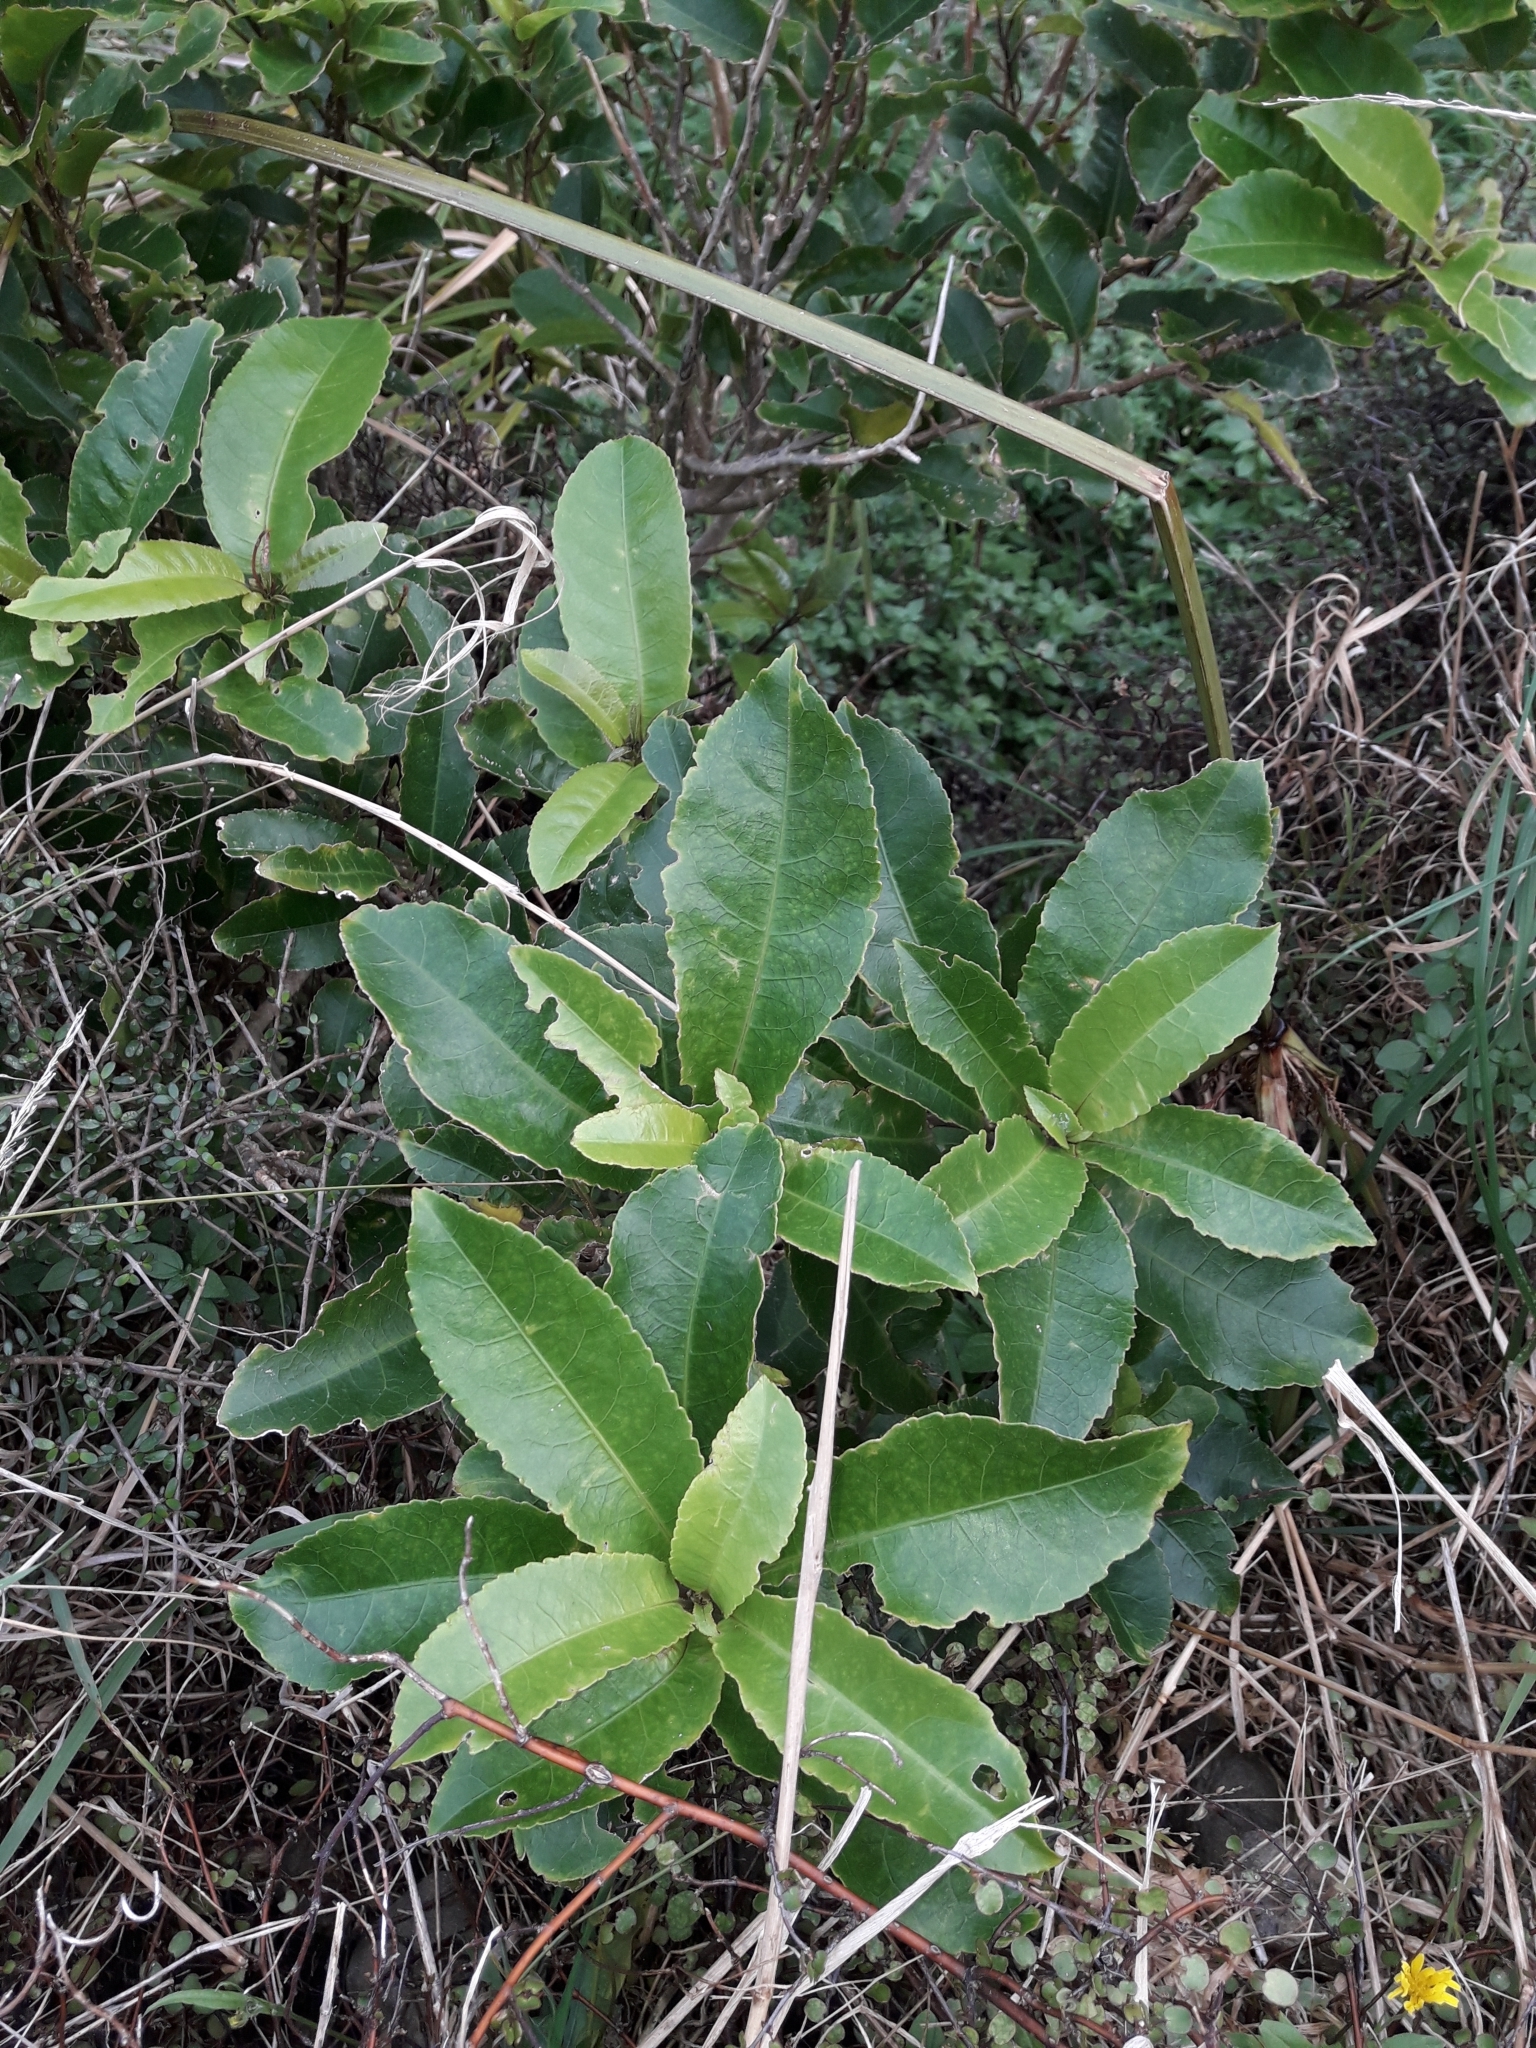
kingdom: Plantae
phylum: Tracheophyta
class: Magnoliopsida
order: Malpighiales
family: Violaceae
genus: Melicytus
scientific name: Melicytus ramiflorus
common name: Mahoe
